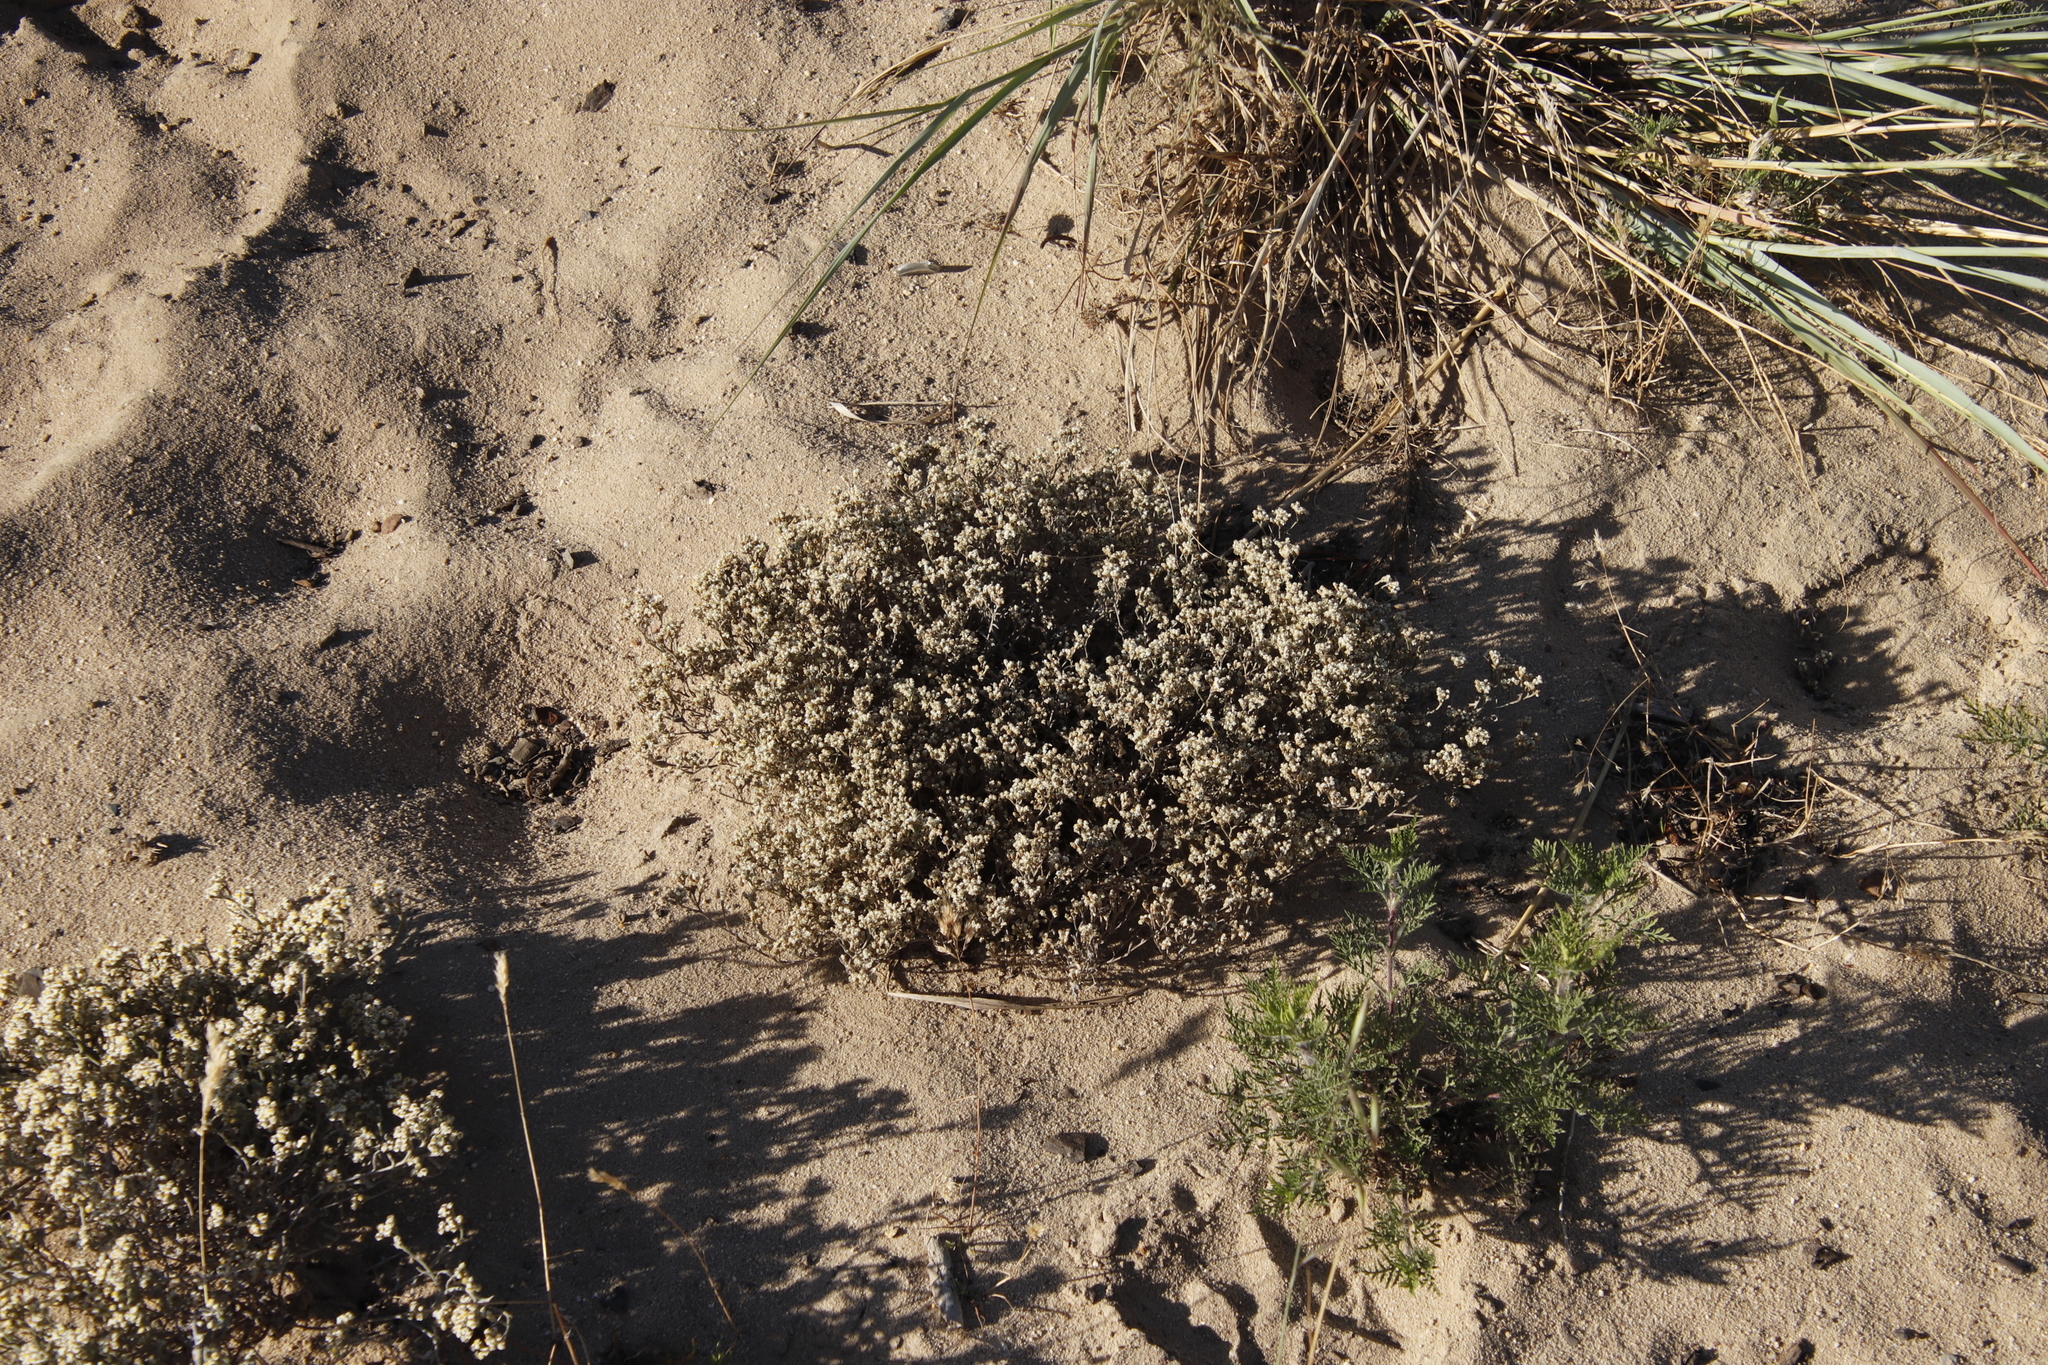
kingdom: Plantae
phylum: Tracheophyta
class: Magnoliopsida
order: Asterales
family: Asteraceae
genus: Helichrysum
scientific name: Helichrysum indicum
